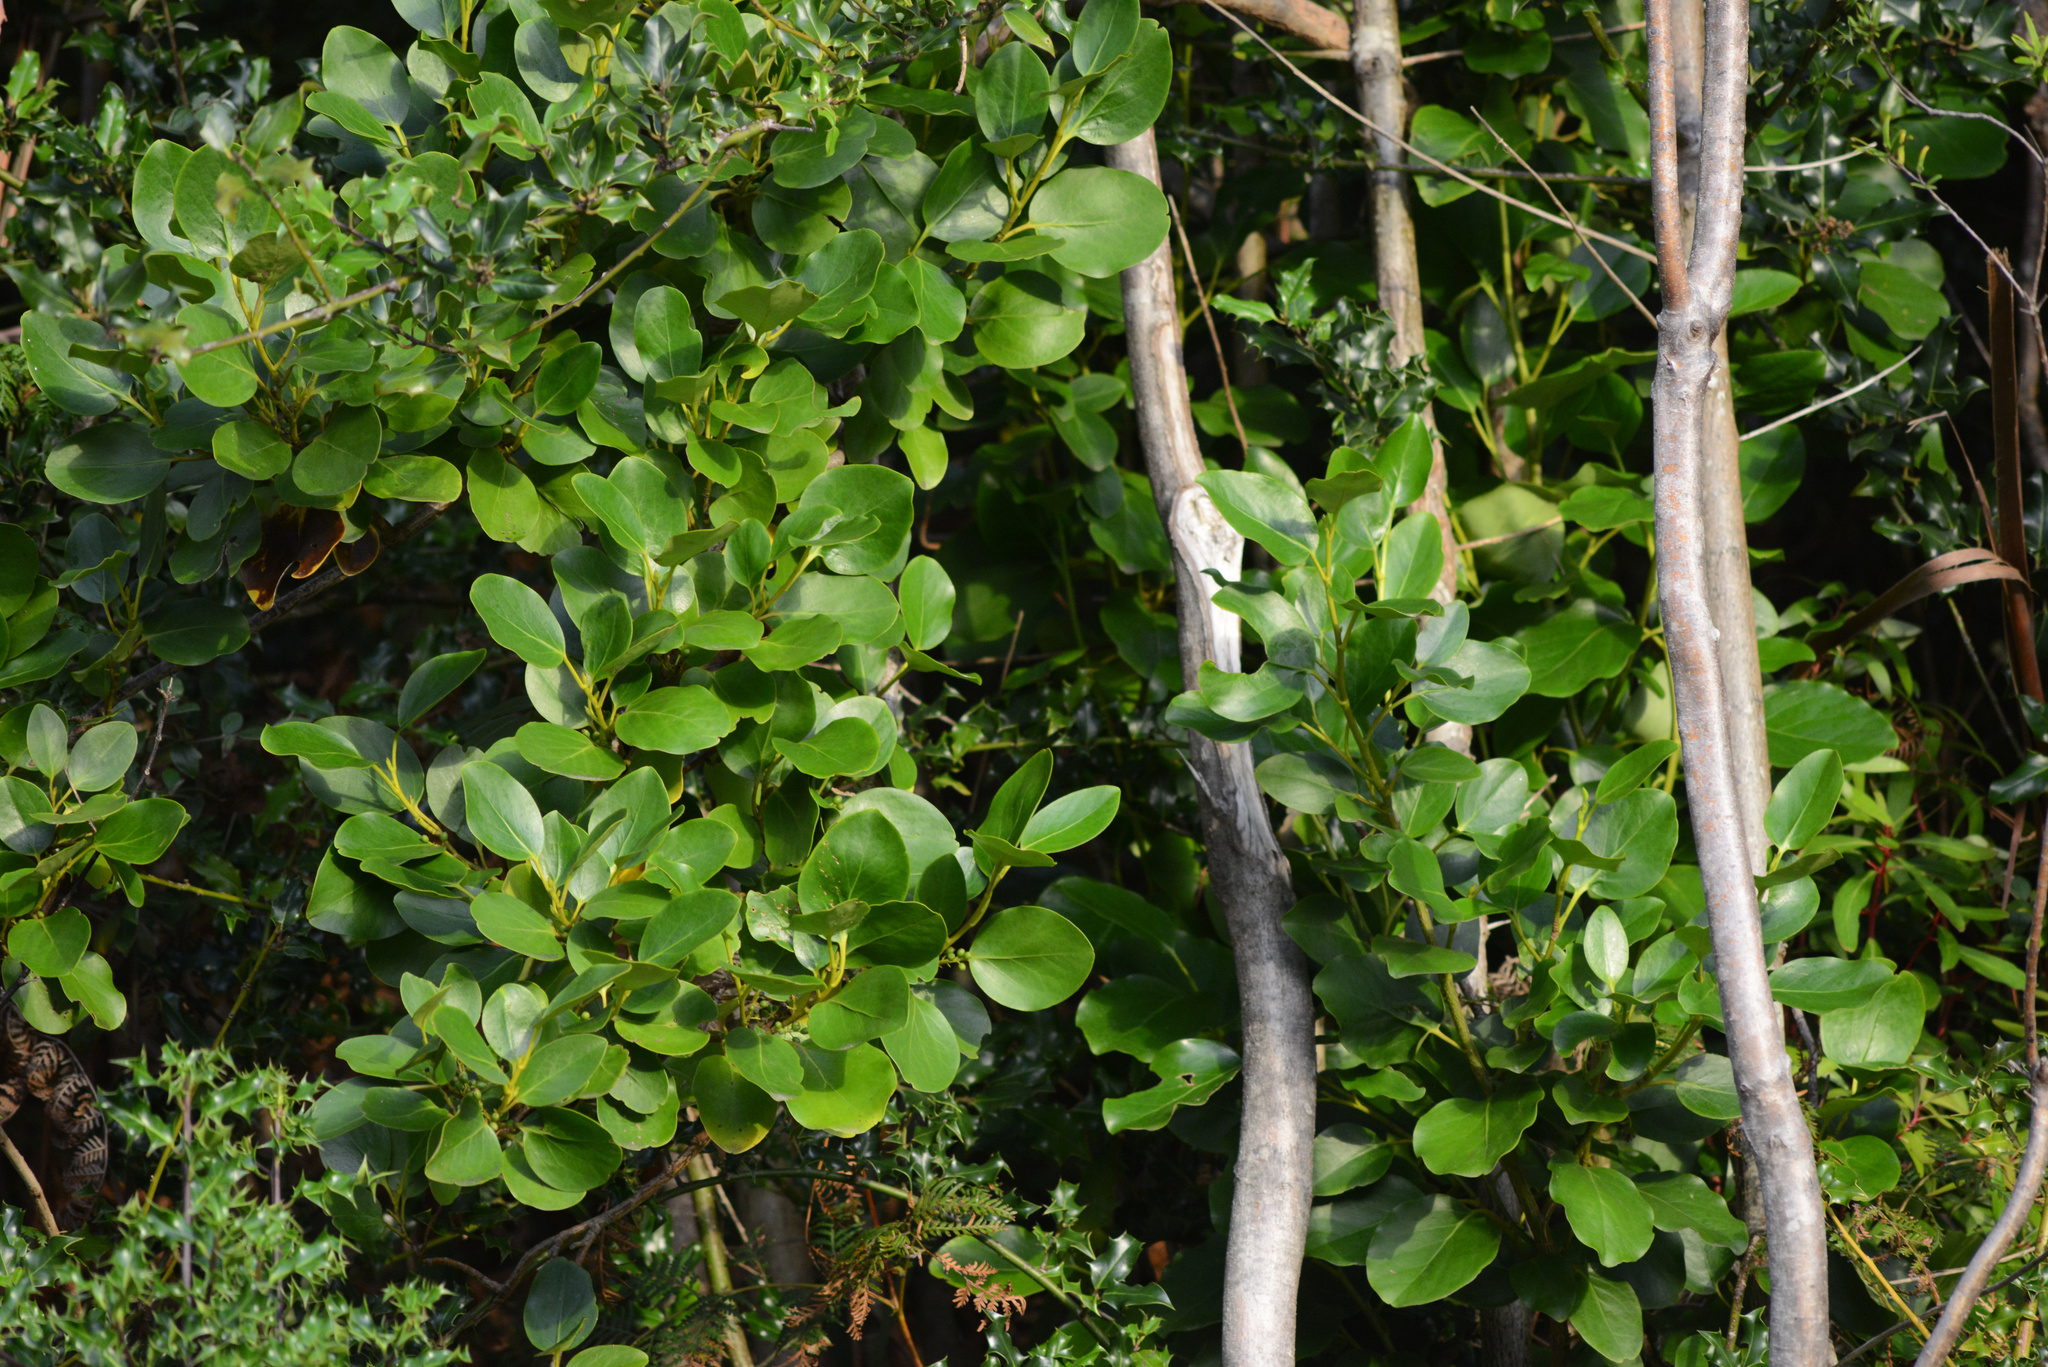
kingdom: Plantae
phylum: Tracheophyta
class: Magnoliopsida
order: Apiales
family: Griseliniaceae
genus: Griselinia
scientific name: Griselinia littoralis
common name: New zealand broadleaf
